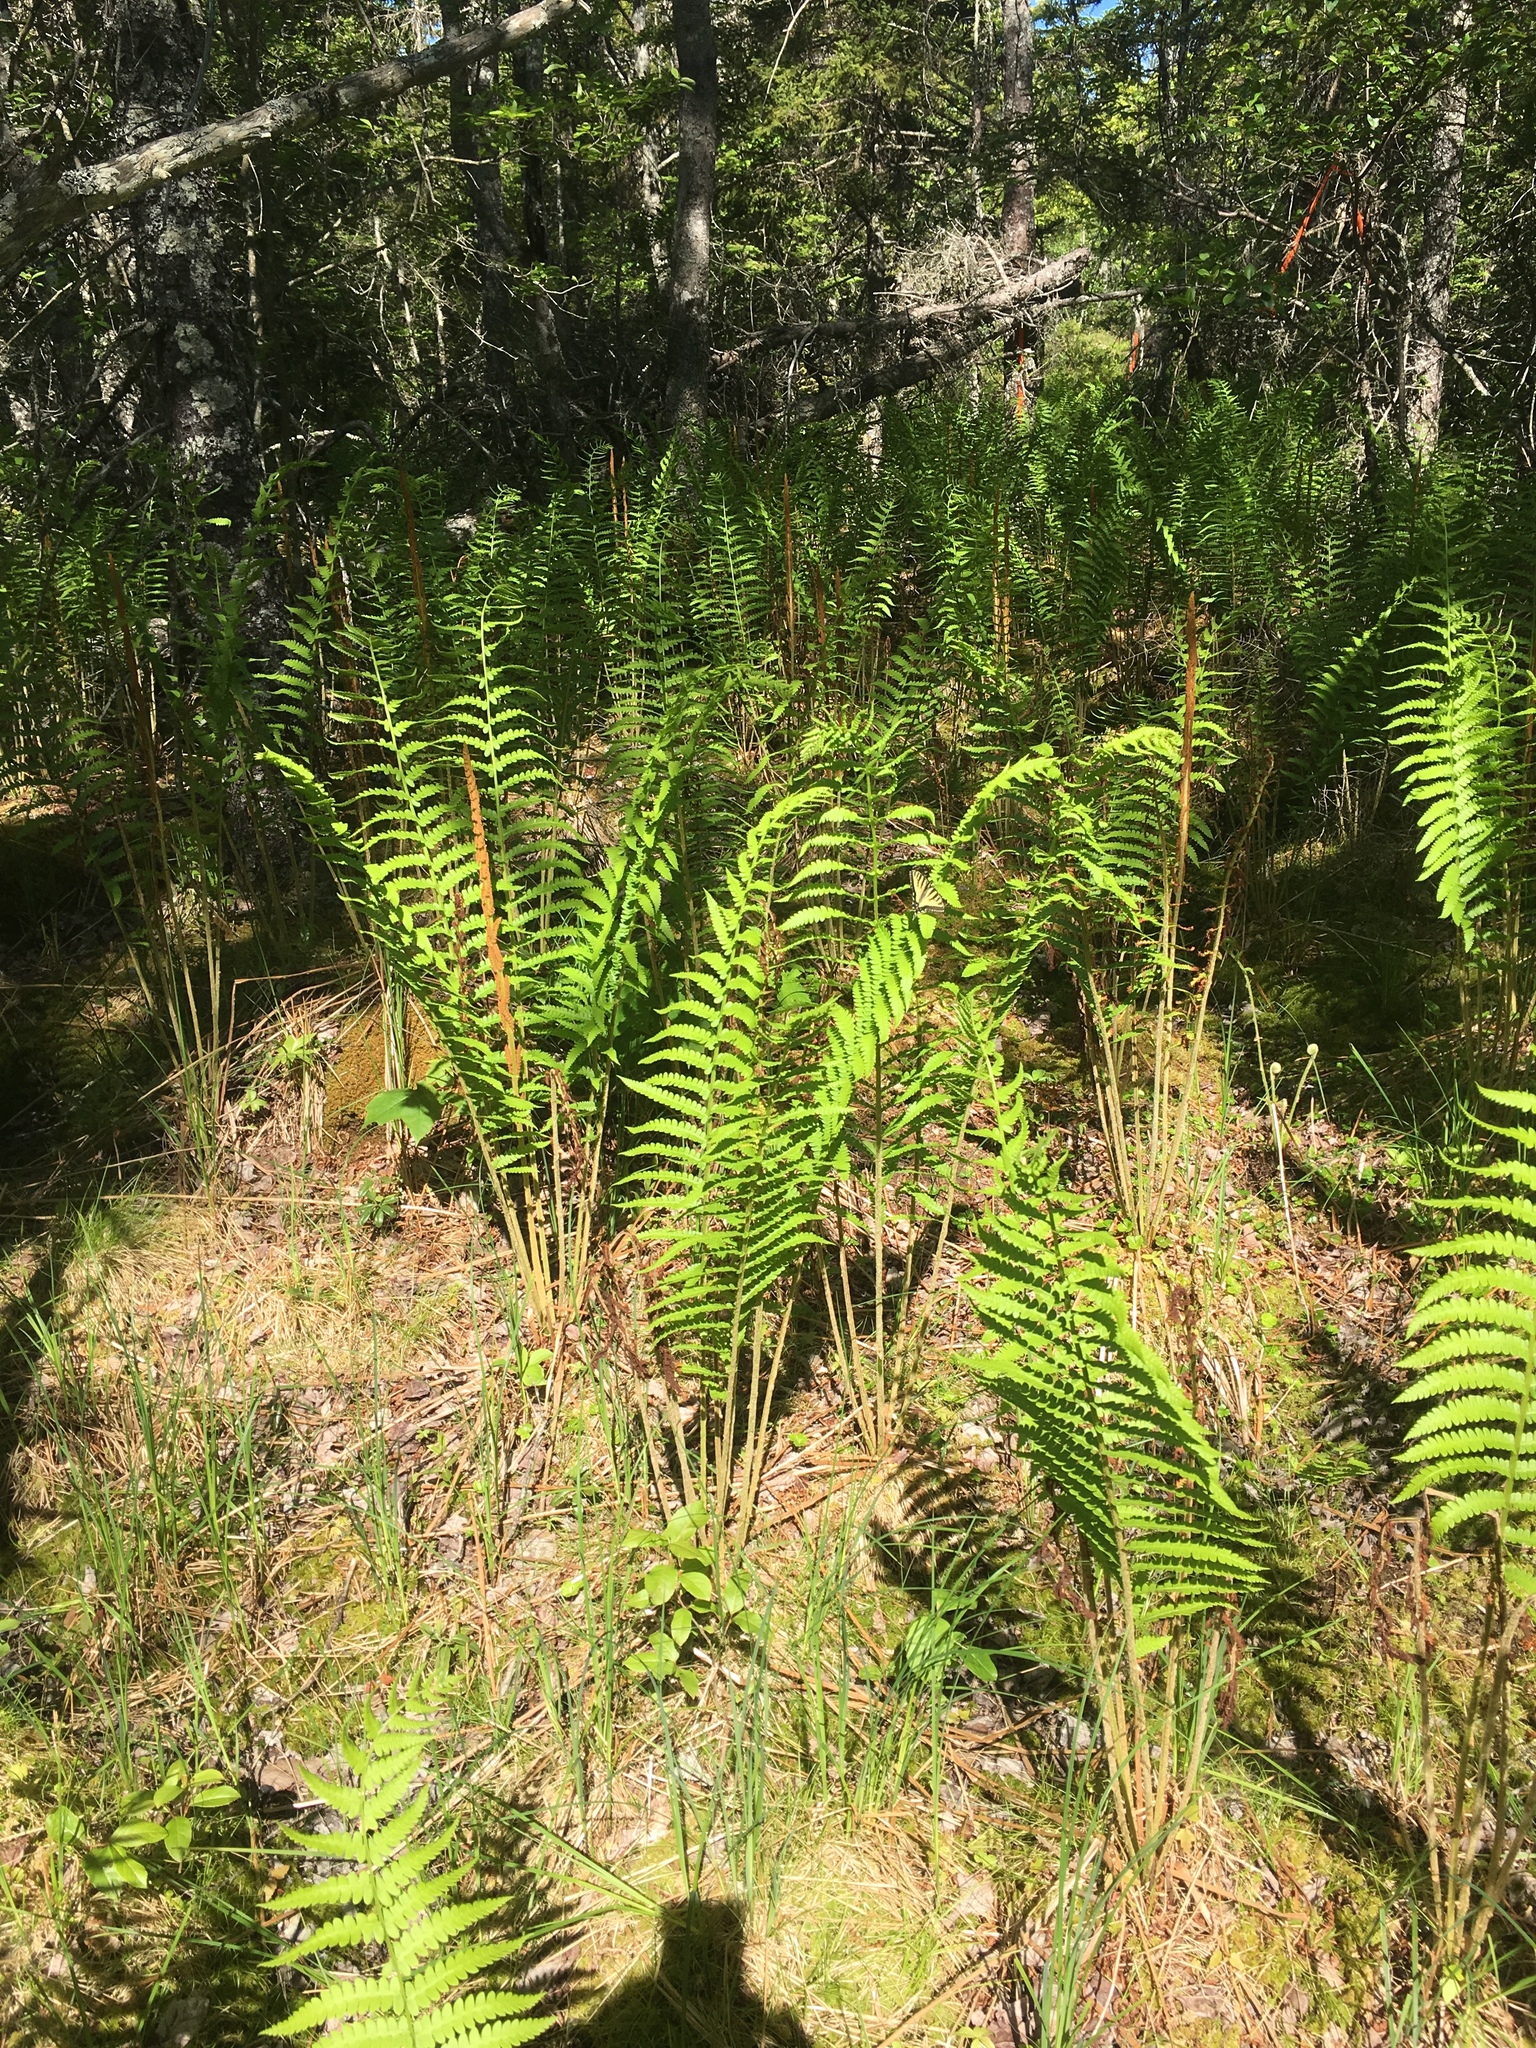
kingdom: Plantae
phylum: Tracheophyta
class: Polypodiopsida
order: Osmundales
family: Osmundaceae
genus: Osmundastrum
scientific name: Osmundastrum cinnamomeum
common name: Cinnamon fern
